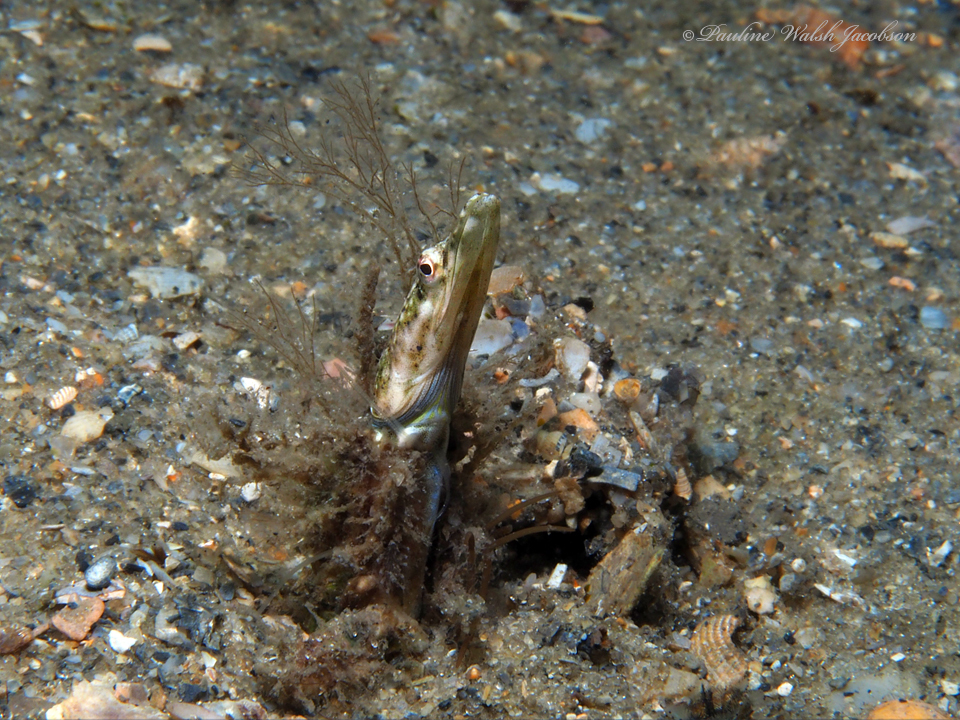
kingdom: Animalia
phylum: Chordata
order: Perciformes
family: Chaenopsidae
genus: Chaenopsis
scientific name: Chaenopsis ocellata
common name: Bluethroat pikeblenny
